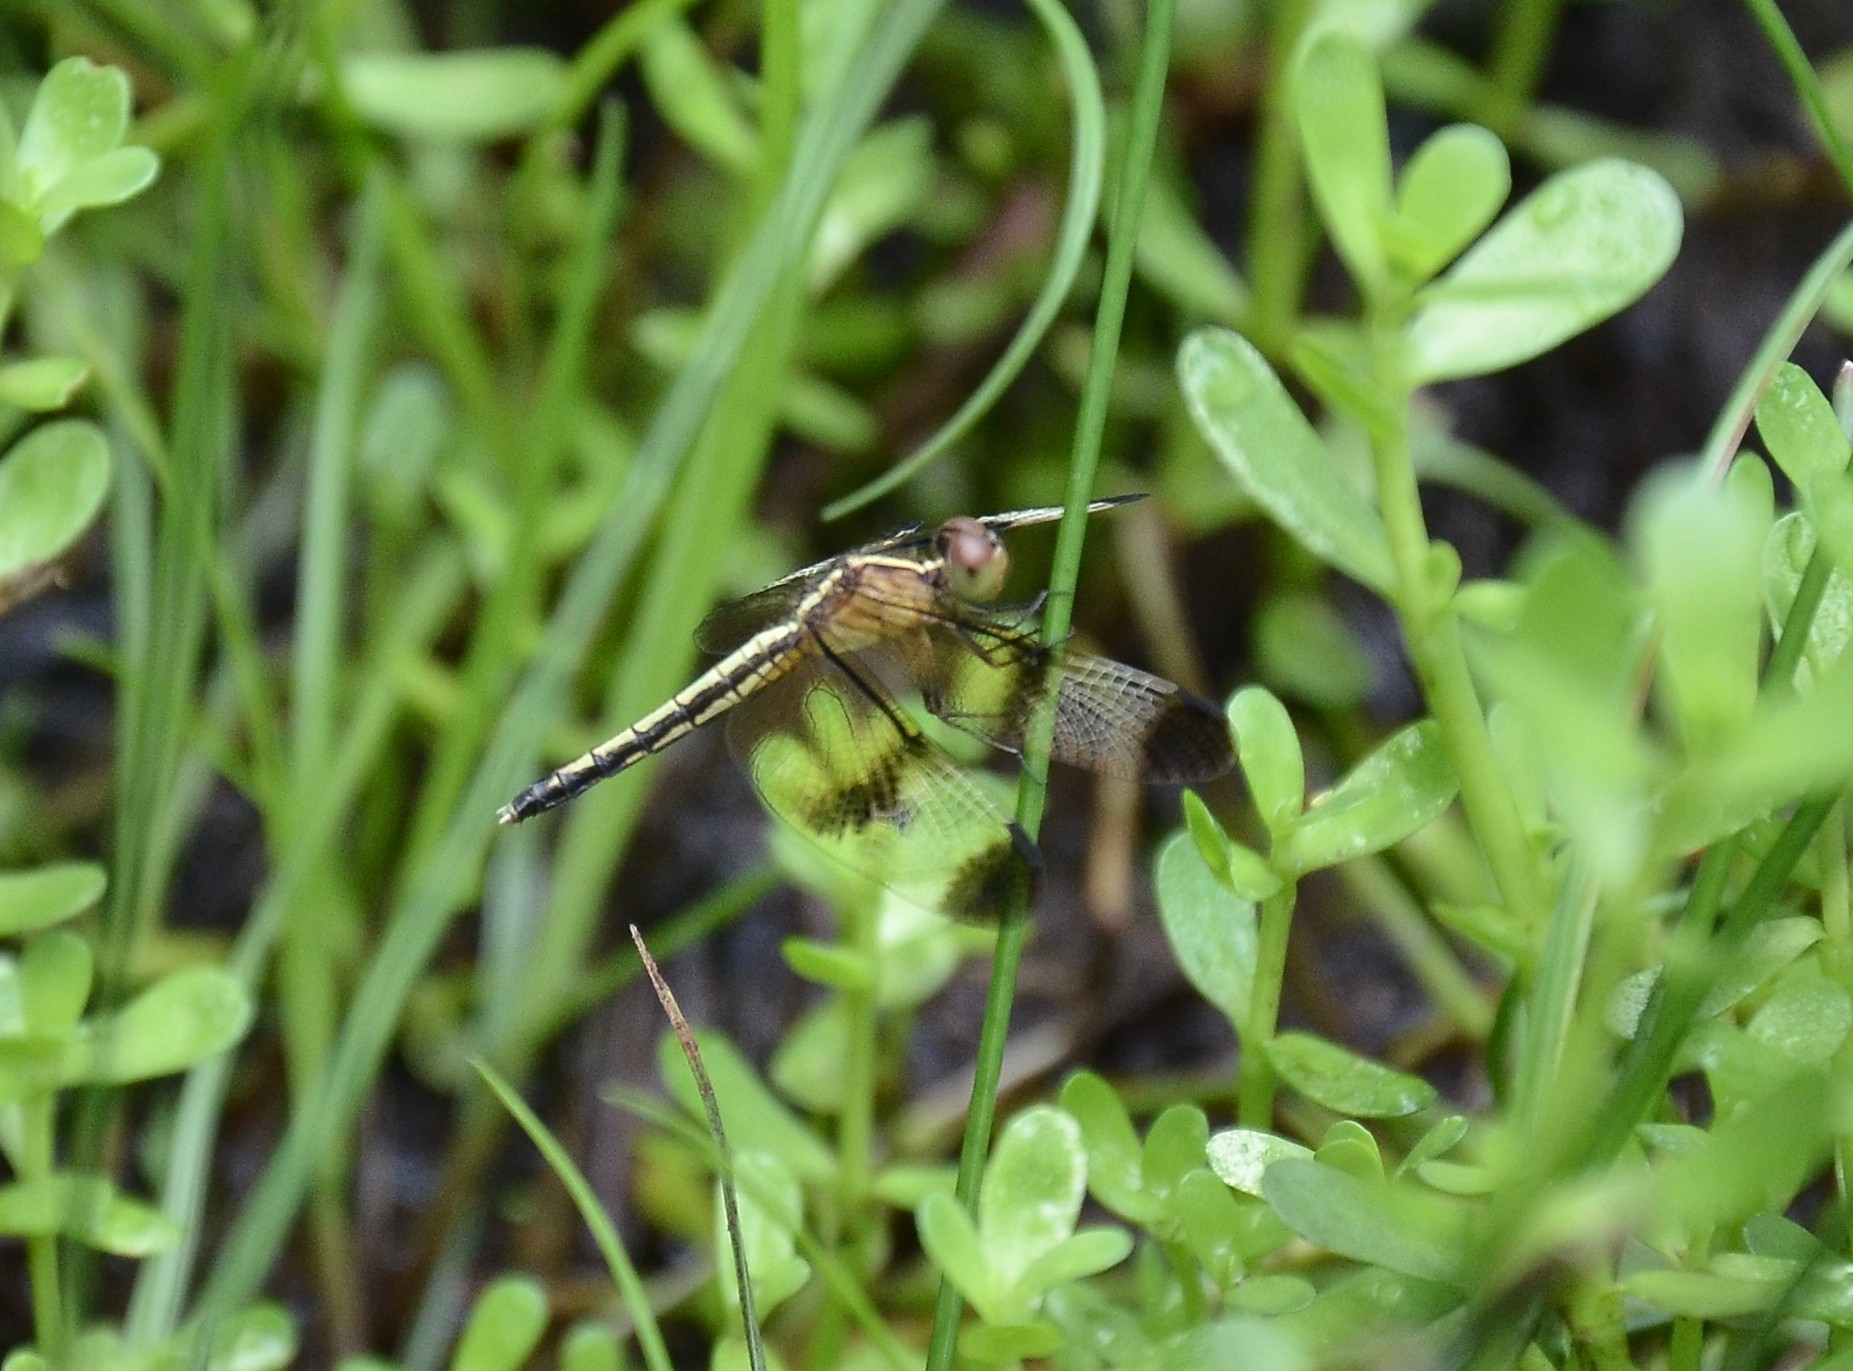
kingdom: Animalia
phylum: Arthropoda
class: Insecta
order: Odonata
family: Libellulidae
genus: Neurothemis
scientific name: Neurothemis tullia
